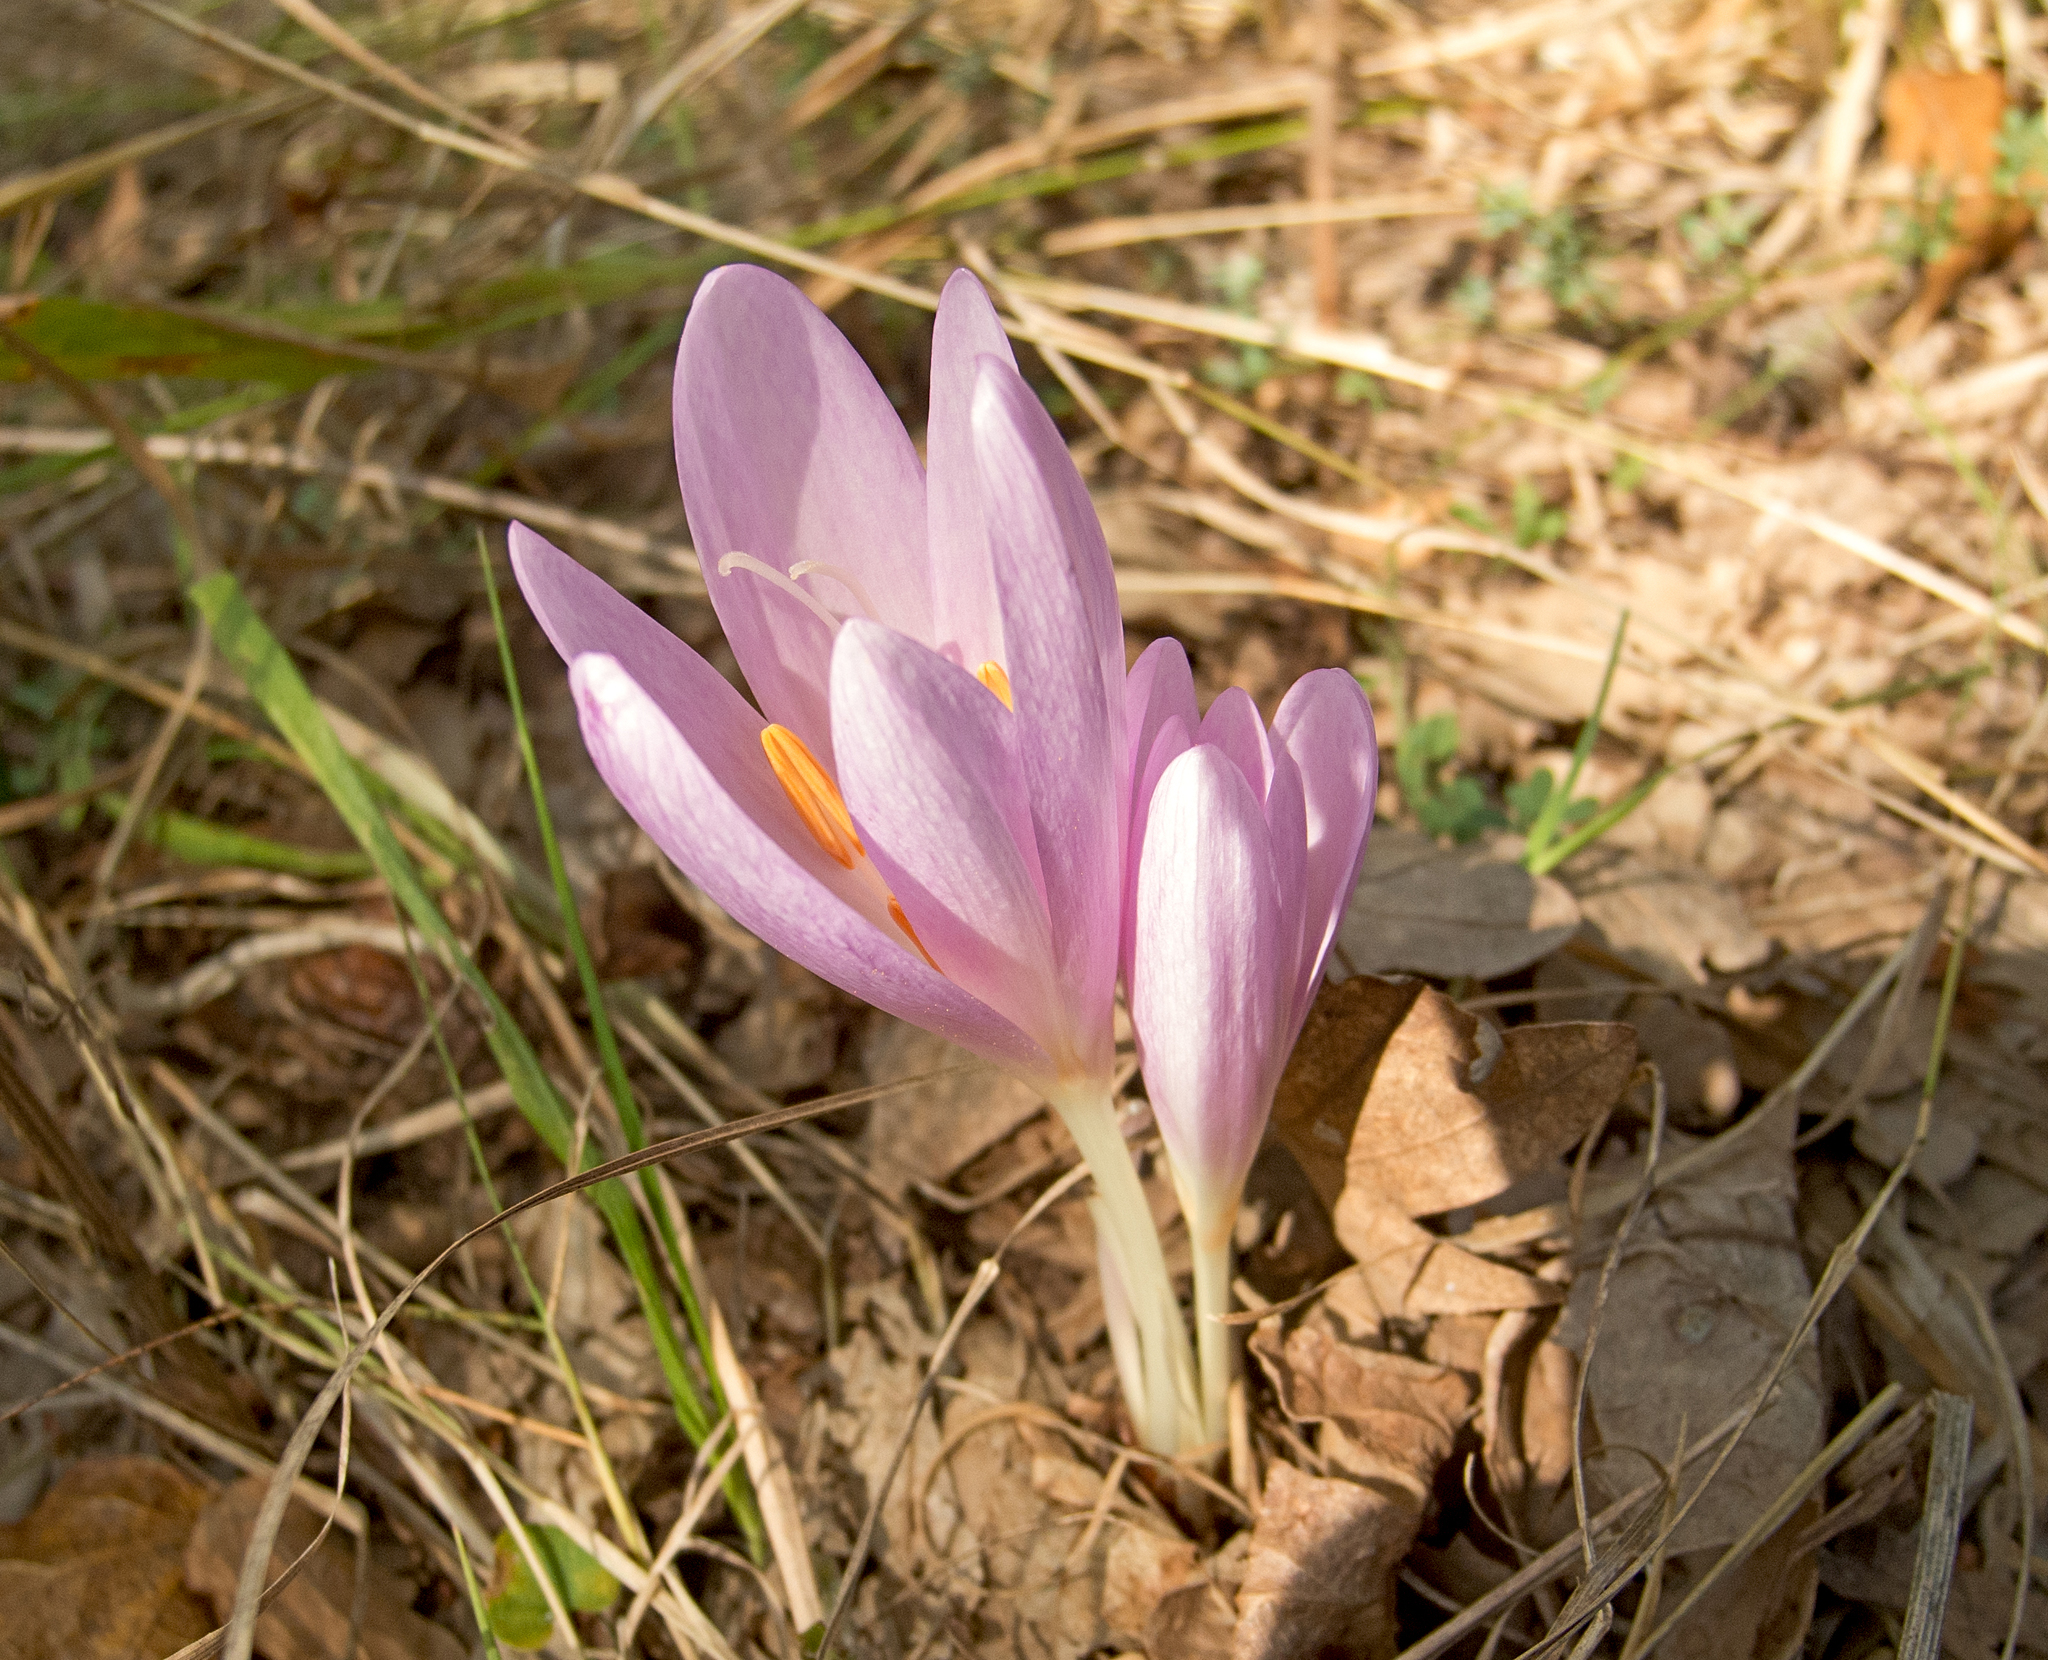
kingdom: Plantae
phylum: Tracheophyta
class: Liliopsida
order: Liliales
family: Colchicaceae
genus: Colchicum
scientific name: Colchicum autumnale
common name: Autumn crocus
